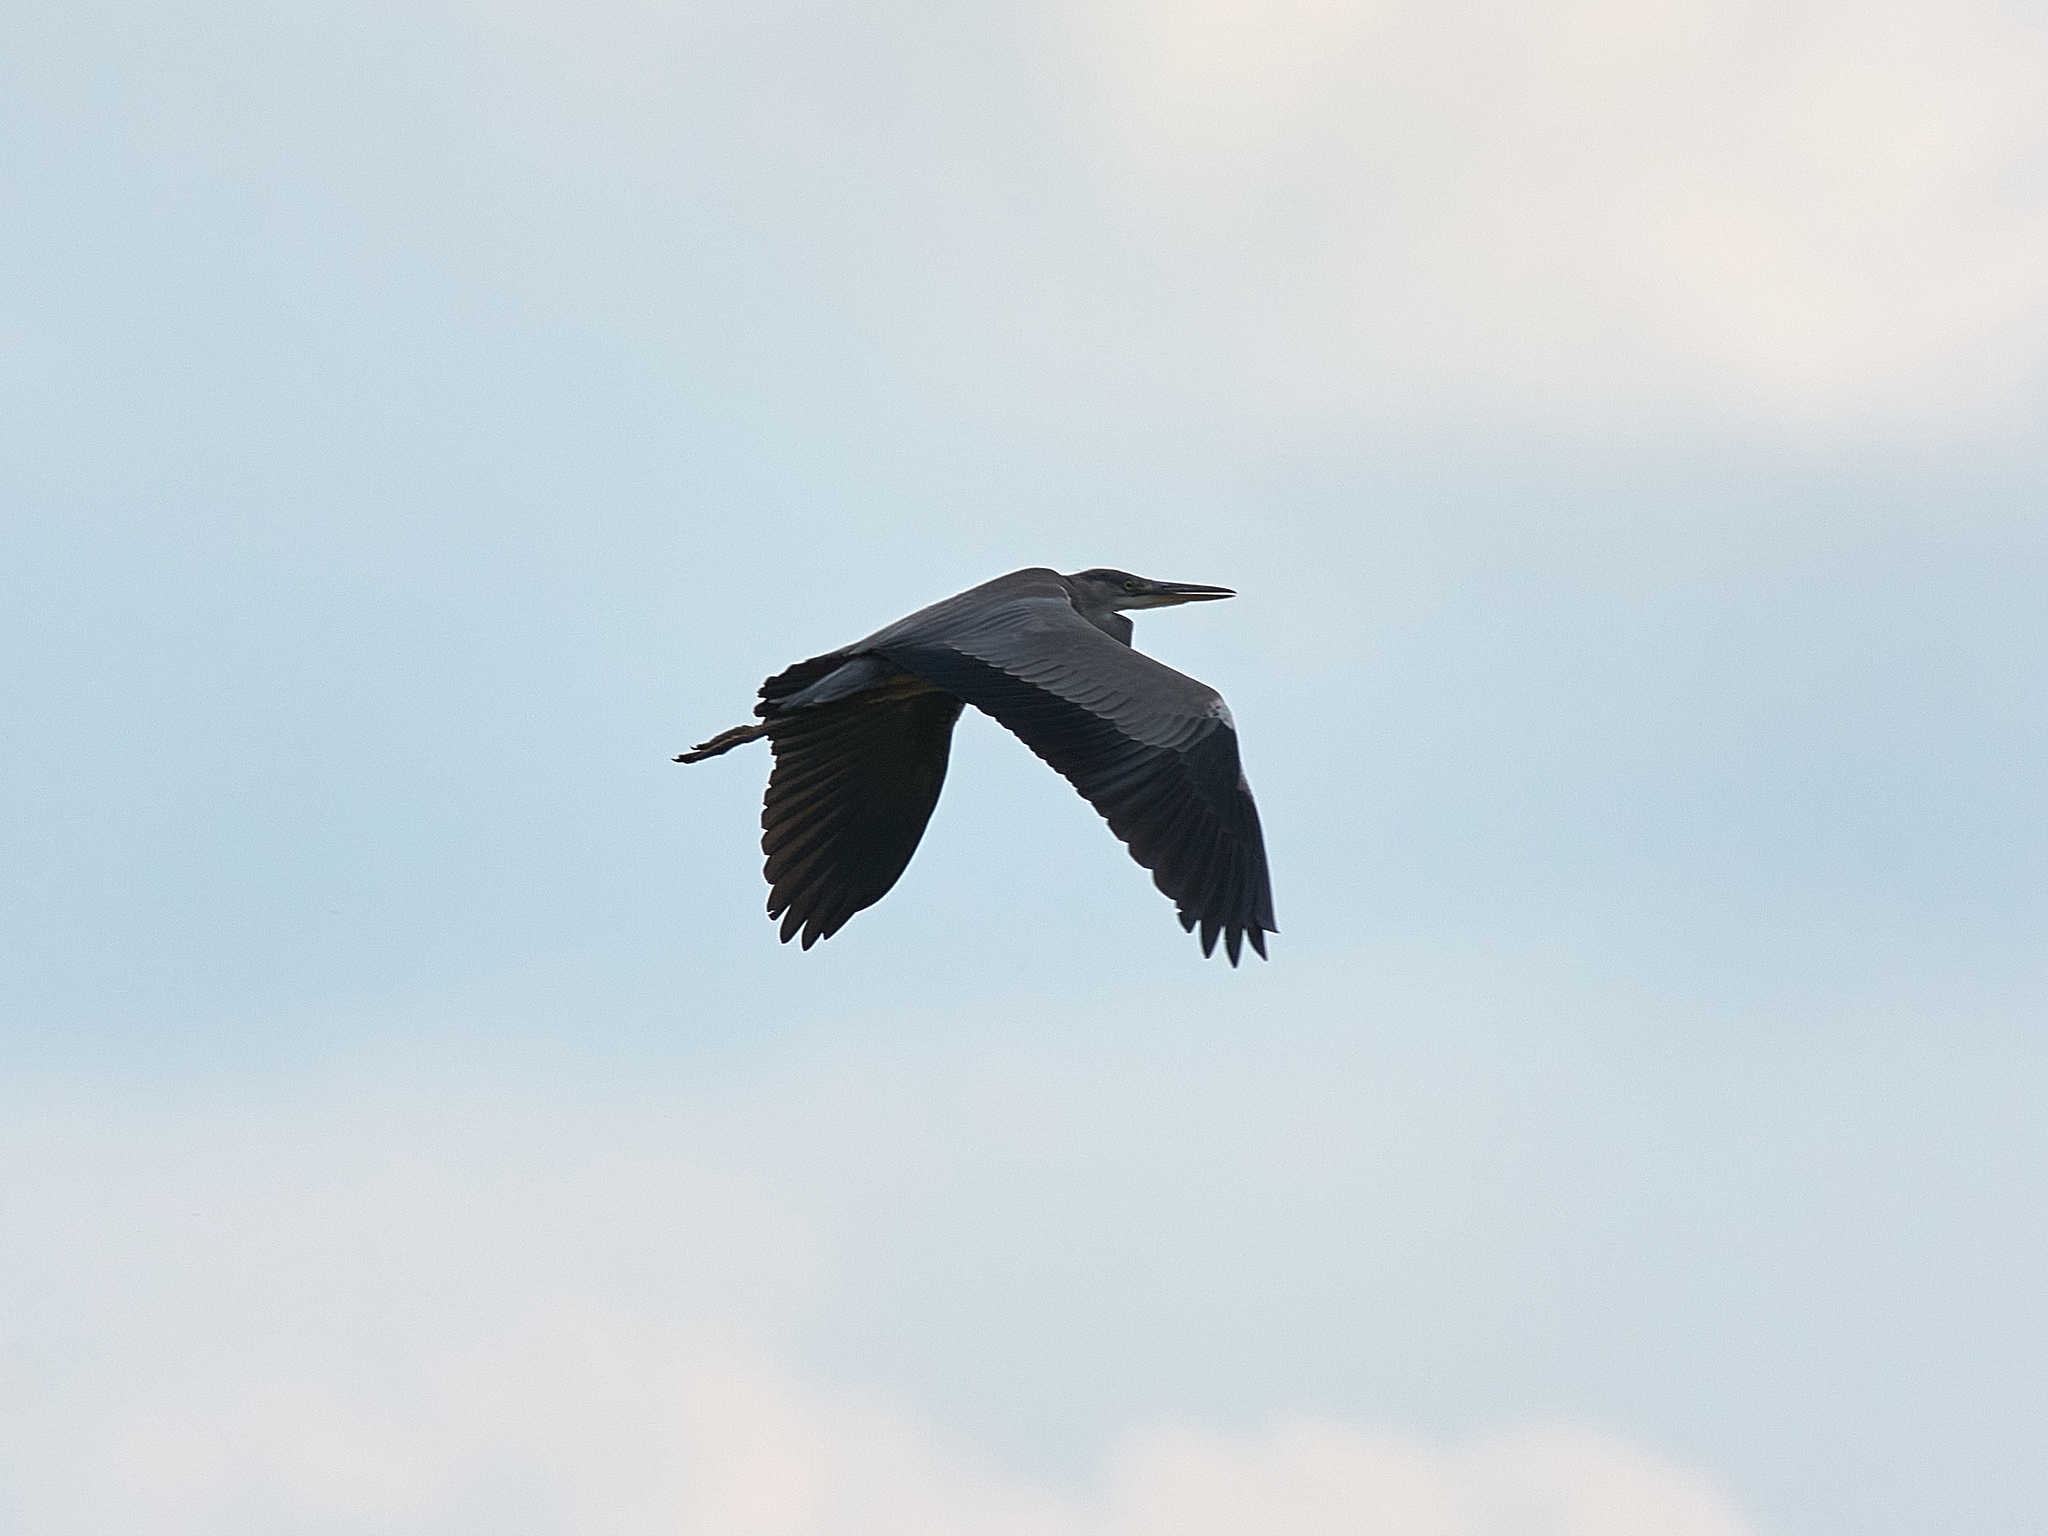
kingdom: Animalia
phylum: Chordata
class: Aves
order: Pelecaniformes
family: Ardeidae
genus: Ardea
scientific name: Ardea cinerea
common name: Grey heron
